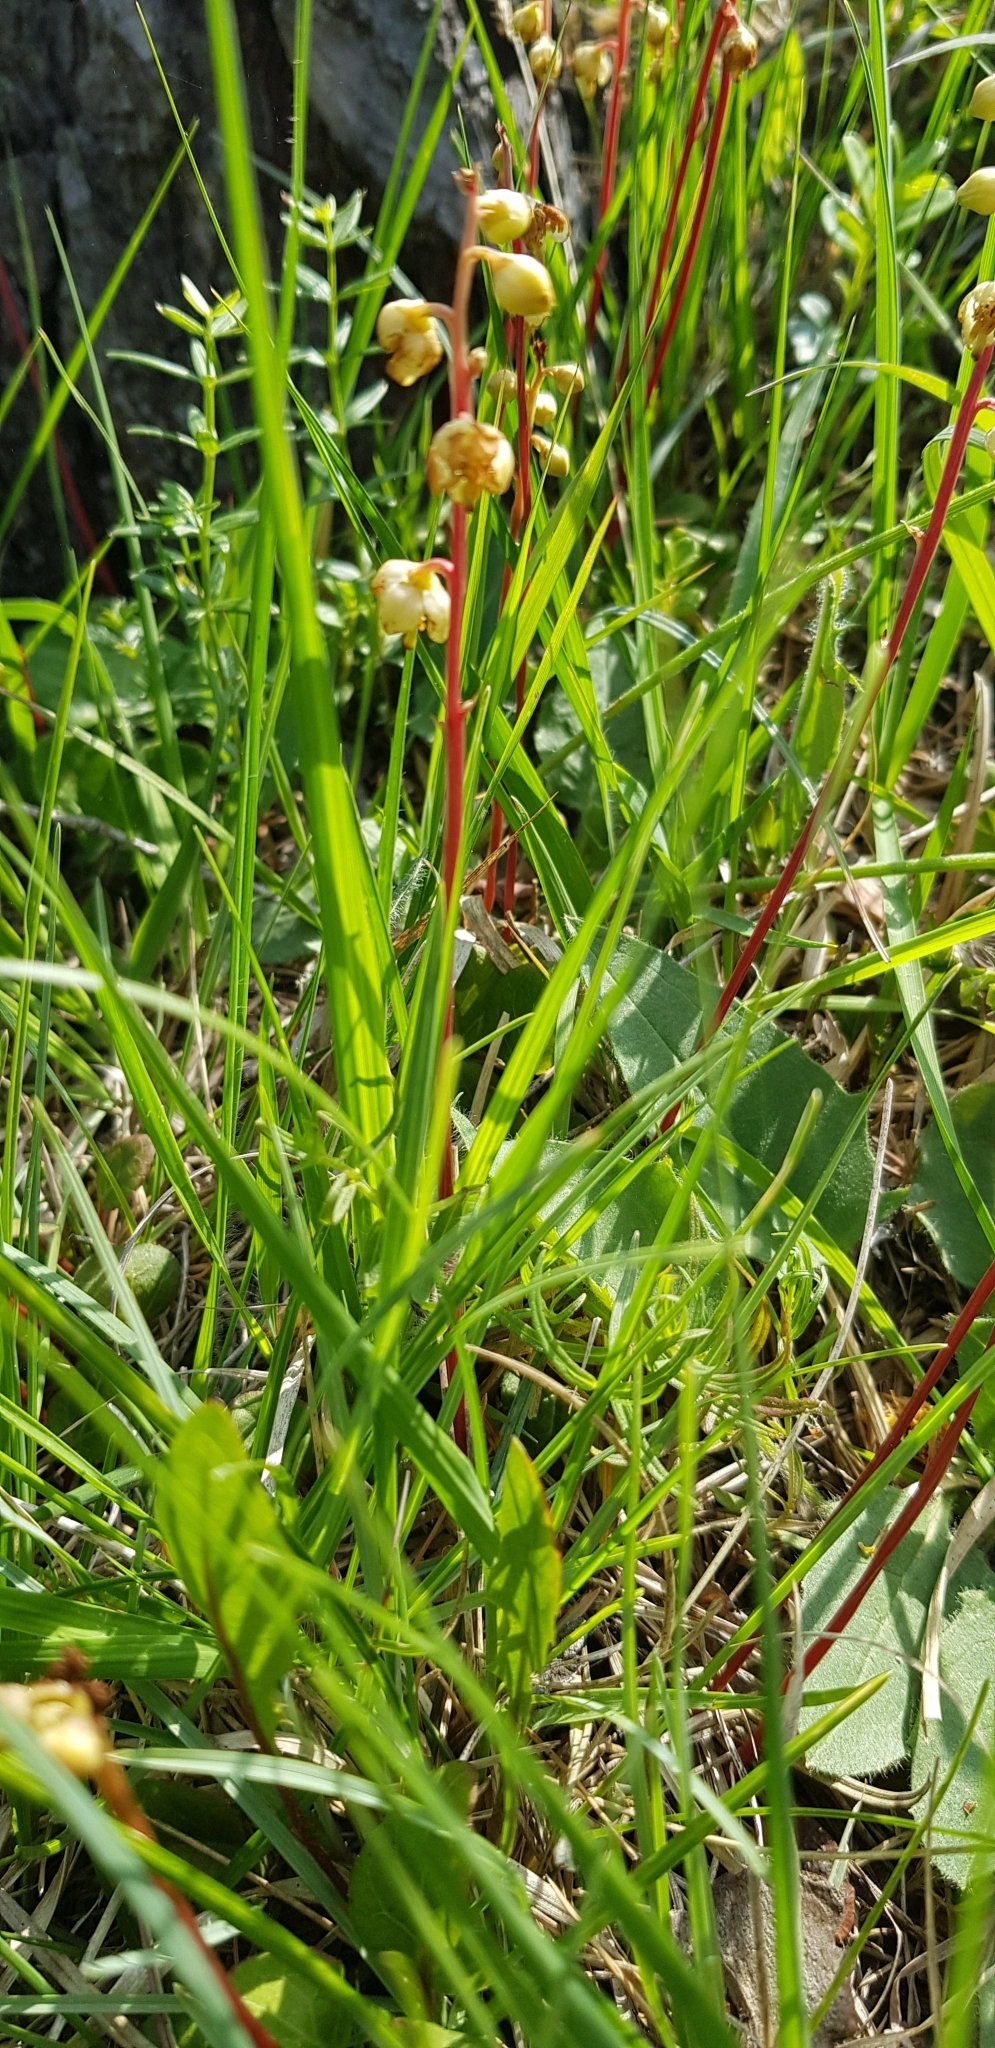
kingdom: Plantae
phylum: Tracheophyta
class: Magnoliopsida
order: Ericales
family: Ericaceae
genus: Pyrola
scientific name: Pyrola chlorantha
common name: Green wintergreen
